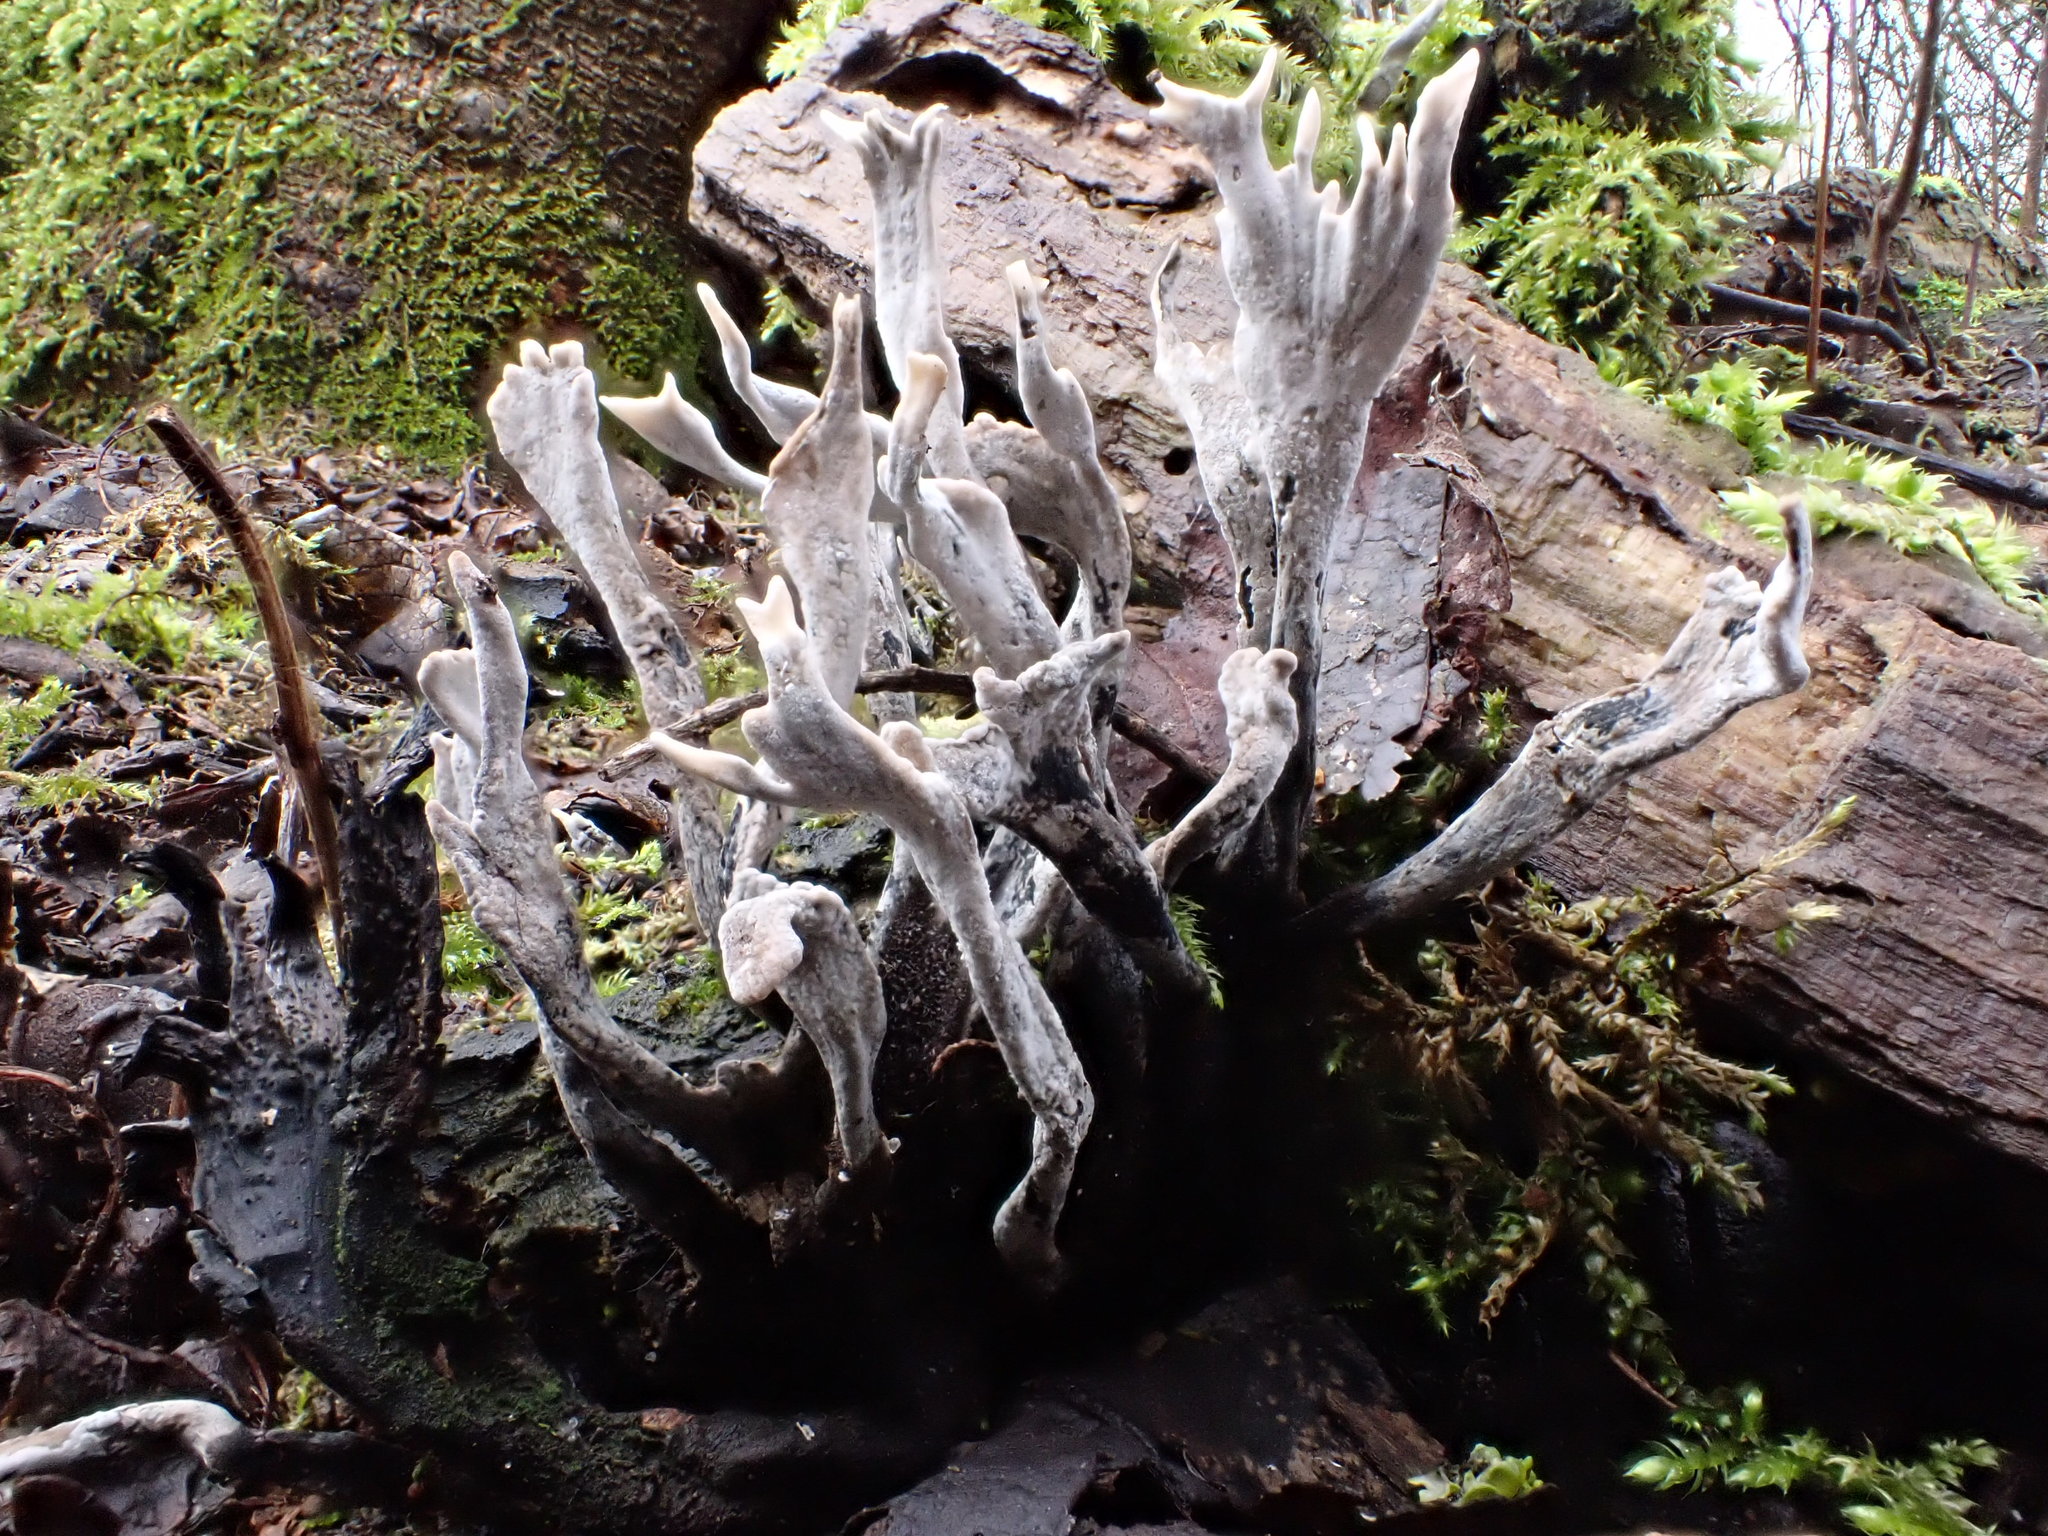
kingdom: Fungi
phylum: Ascomycota
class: Sordariomycetes
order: Xylariales
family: Xylariaceae
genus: Xylaria
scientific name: Xylaria hypoxylon
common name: Candle-snuff fungus
